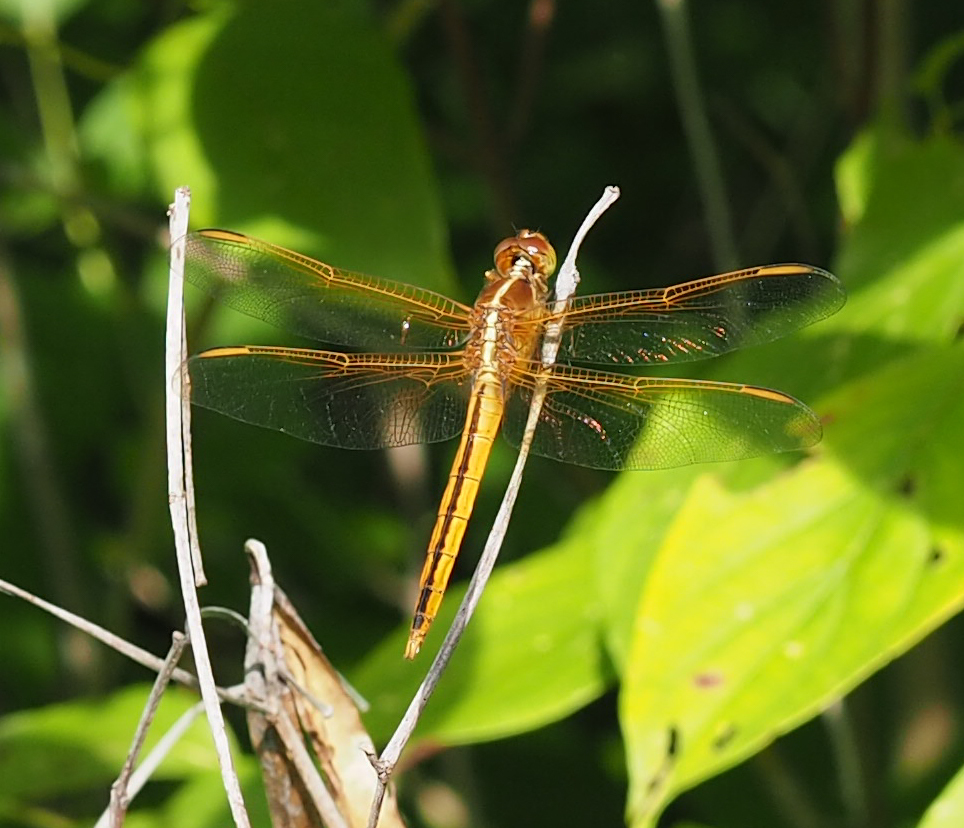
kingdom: Animalia
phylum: Arthropoda
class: Insecta
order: Odonata
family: Libellulidae
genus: Libellula
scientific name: Libellula needhami
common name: Needham's skimmer
